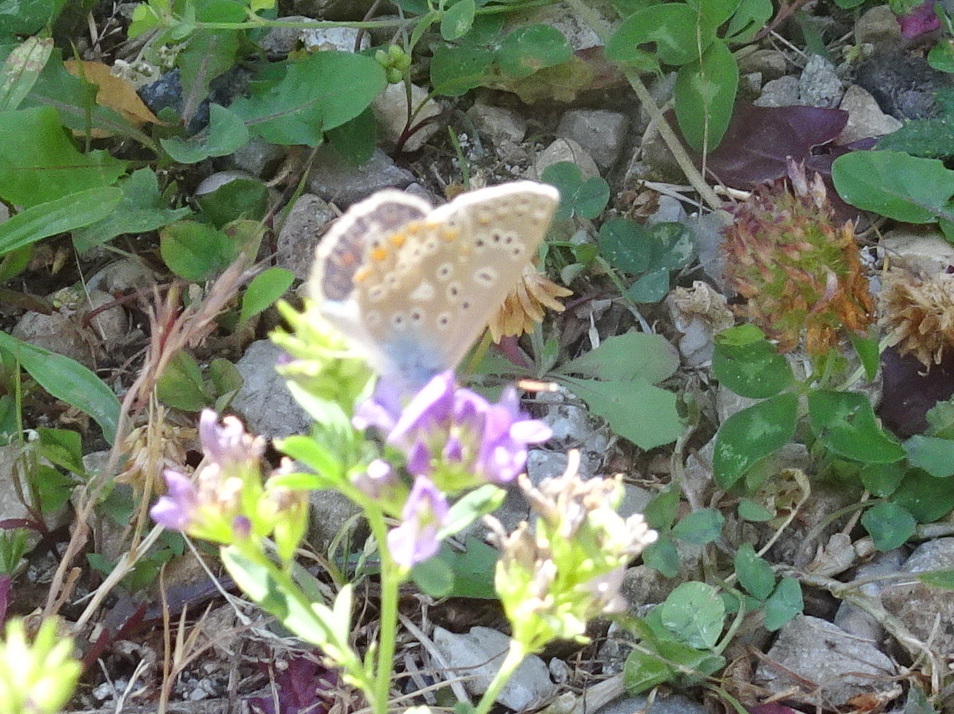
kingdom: Animalia
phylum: Arthropoda
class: Insecta
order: Lepidoptera
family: Lycaenidae
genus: Polyommatus
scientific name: Polyommatus icarus
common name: Common blue
